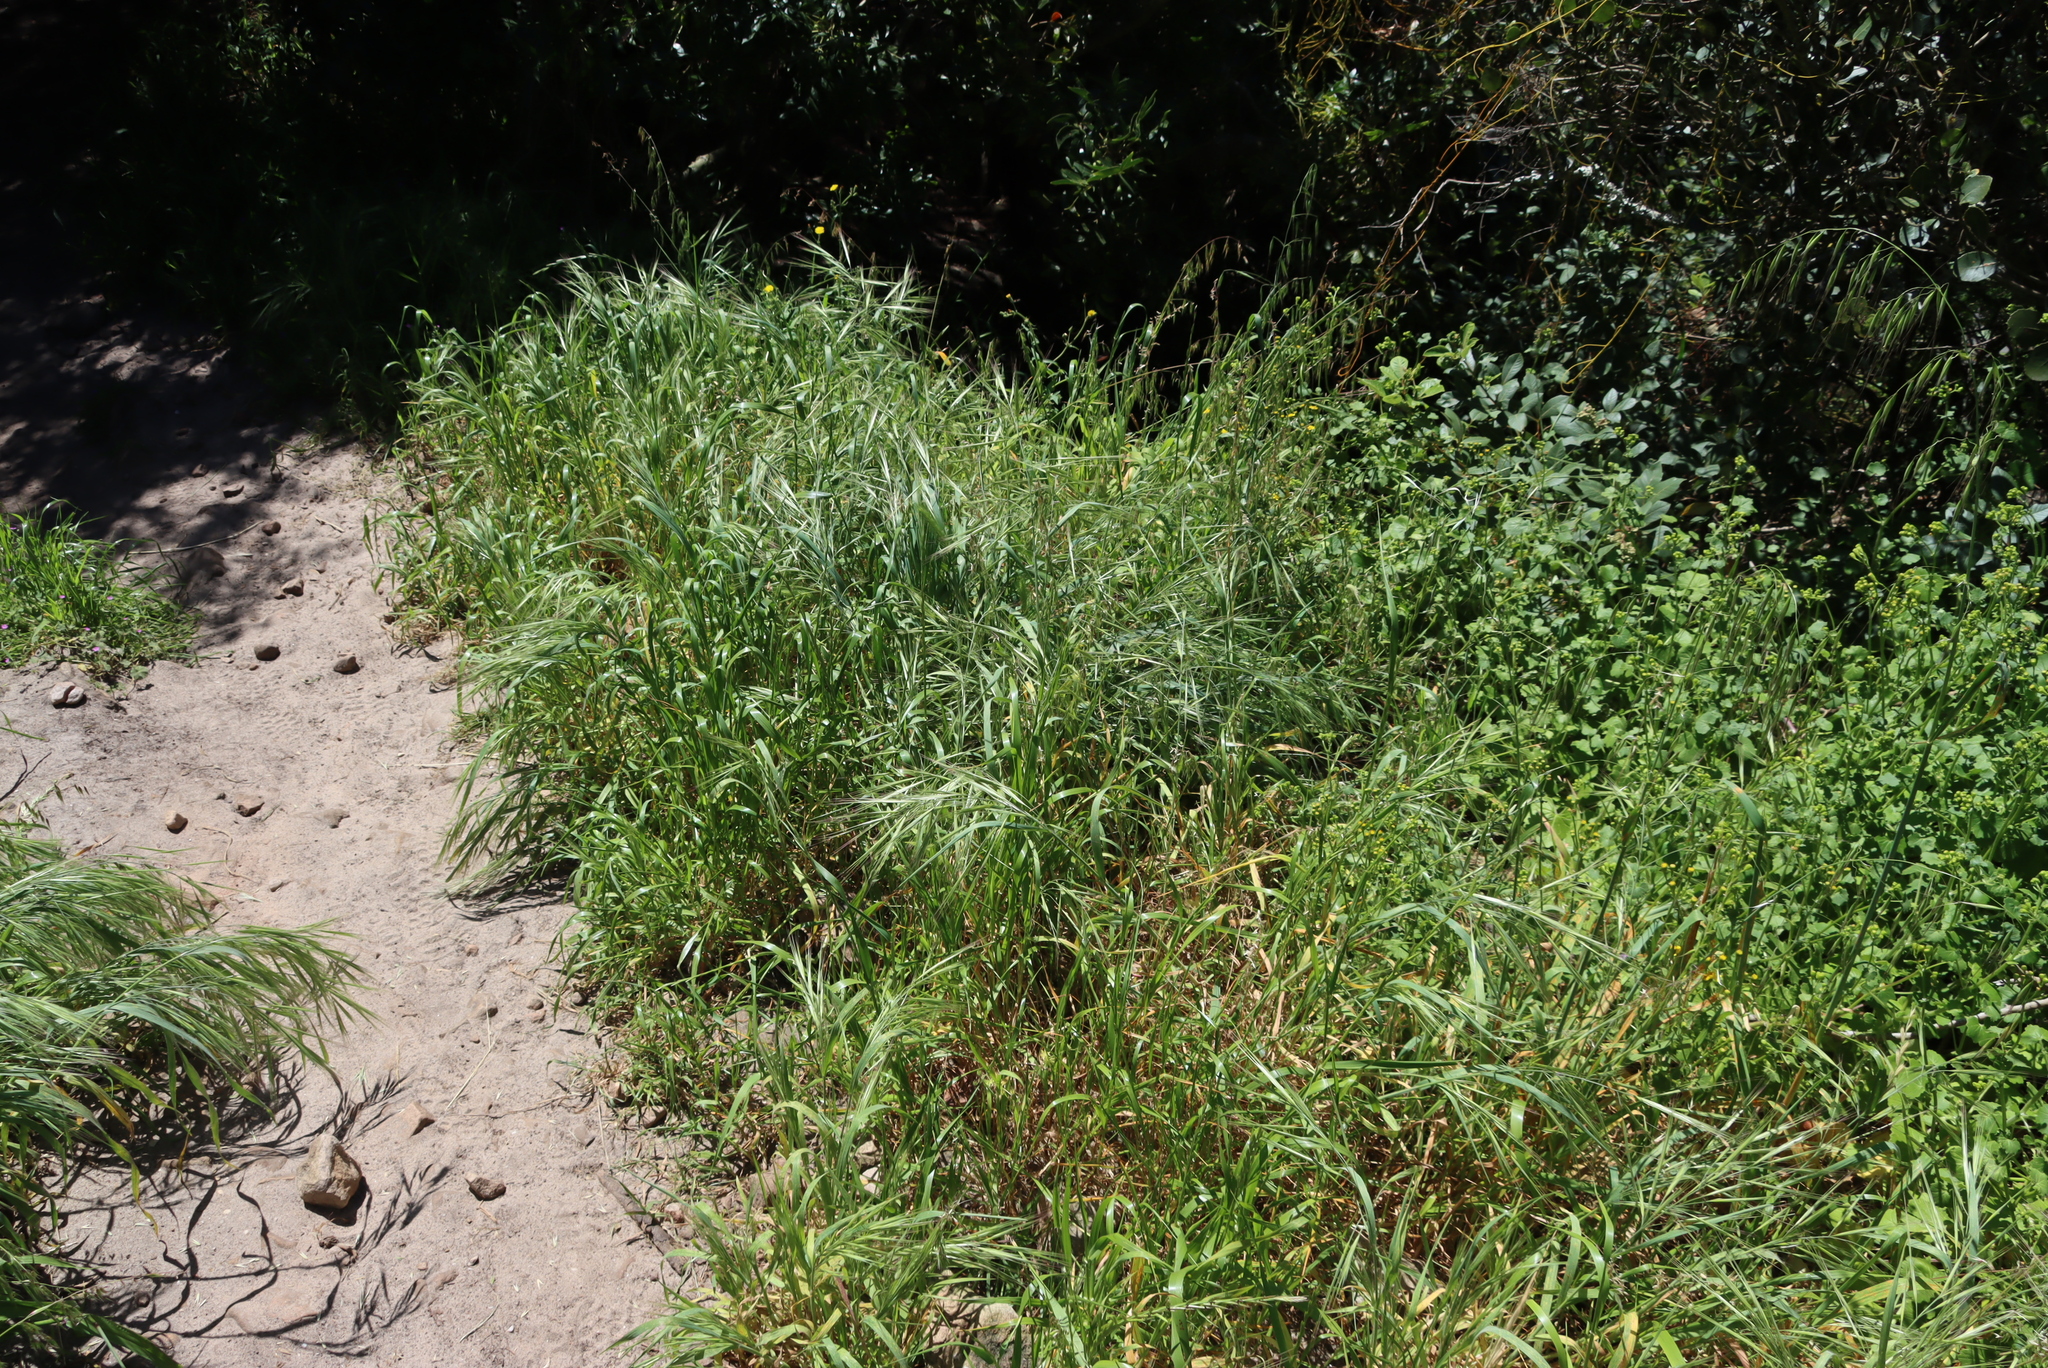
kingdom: Plantae
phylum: Tracheophyta
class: Liliopsida
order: Poales
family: Poaceae
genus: Bromus
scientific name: Bromus diandrus
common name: Ripgut brome
